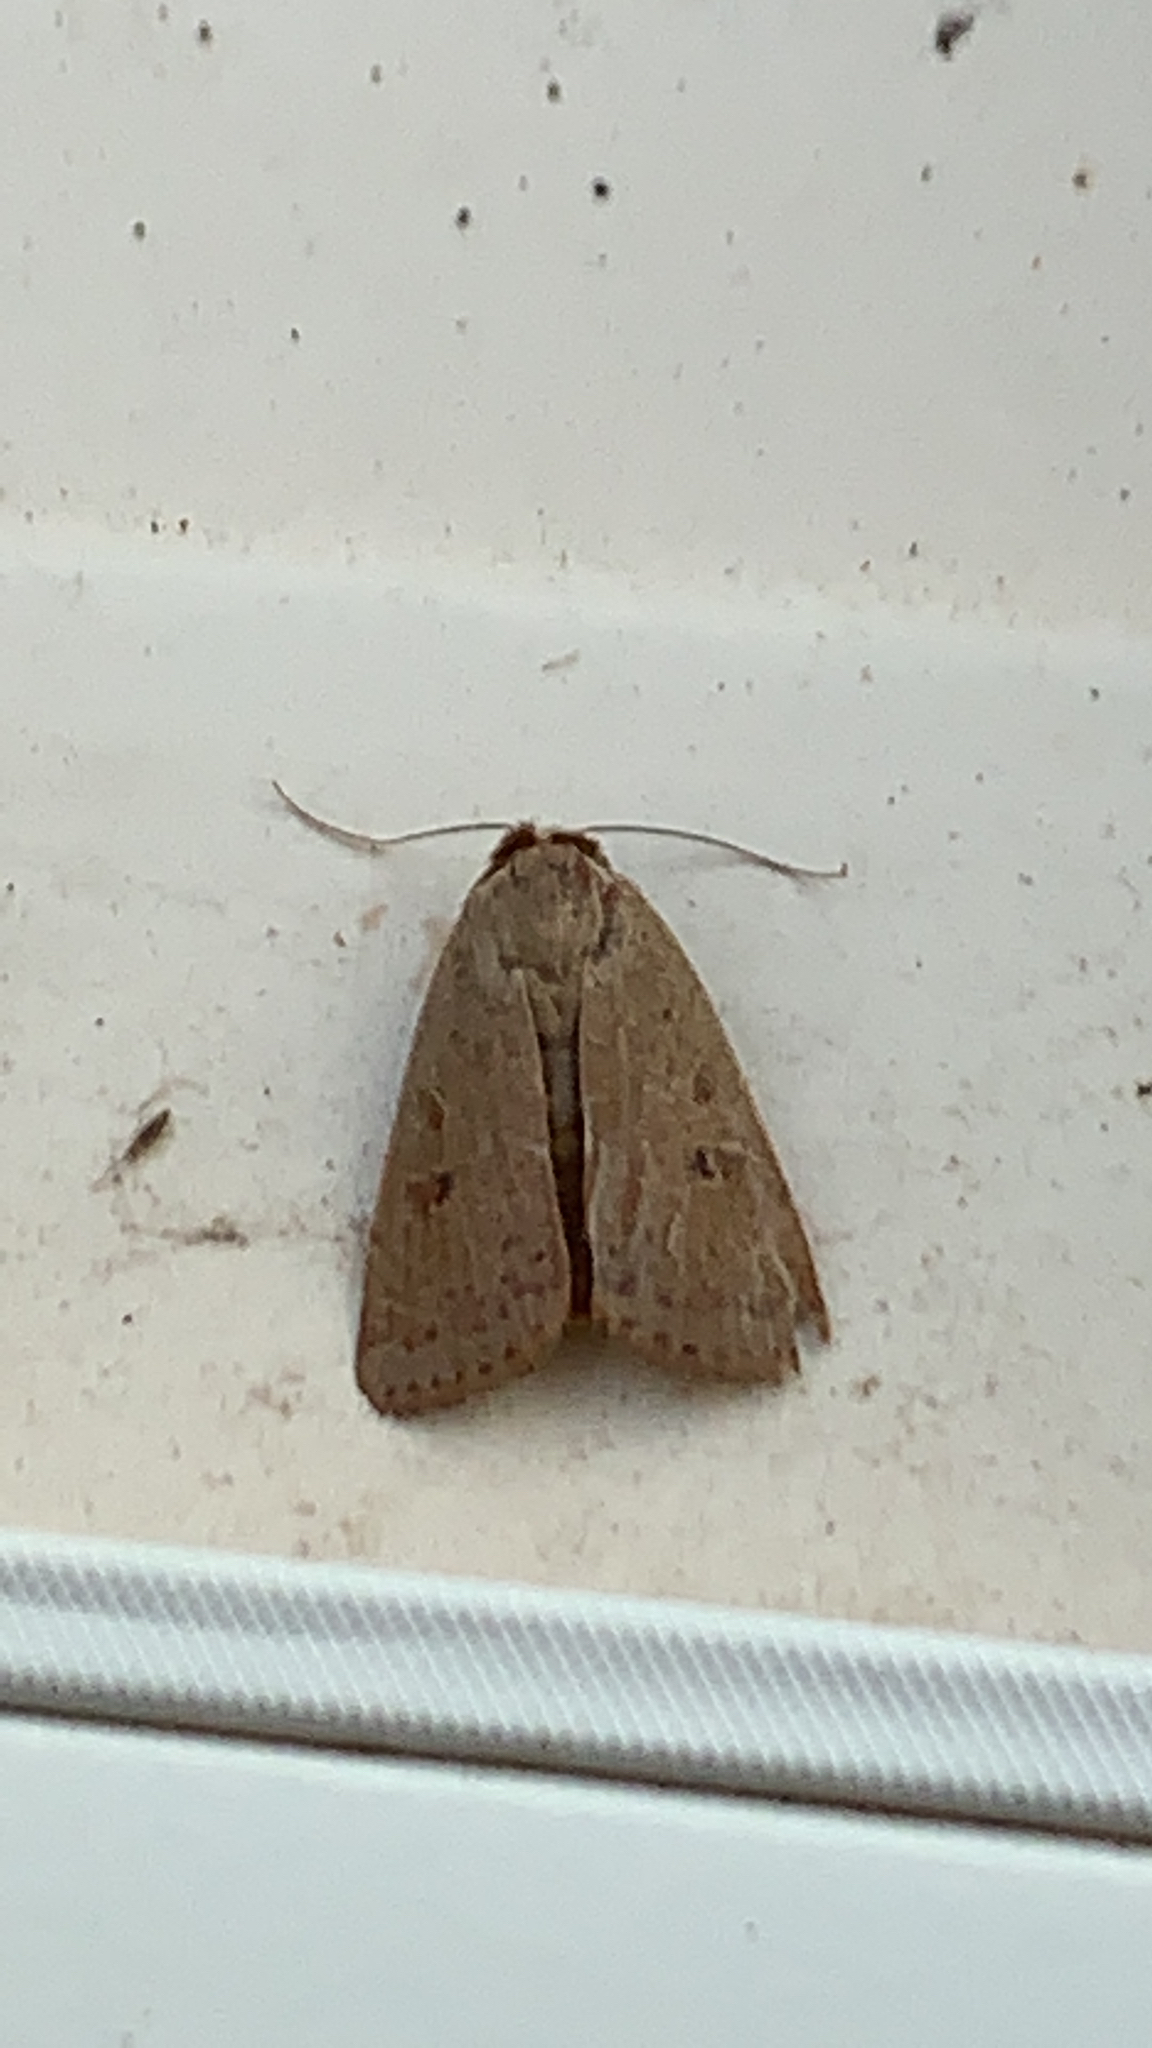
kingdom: Animalia
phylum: Arthropoda
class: Insecta
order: Lepidoptera
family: Noctuidae
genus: Noctua
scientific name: Noctua comes
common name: Lesser yellow underwing
